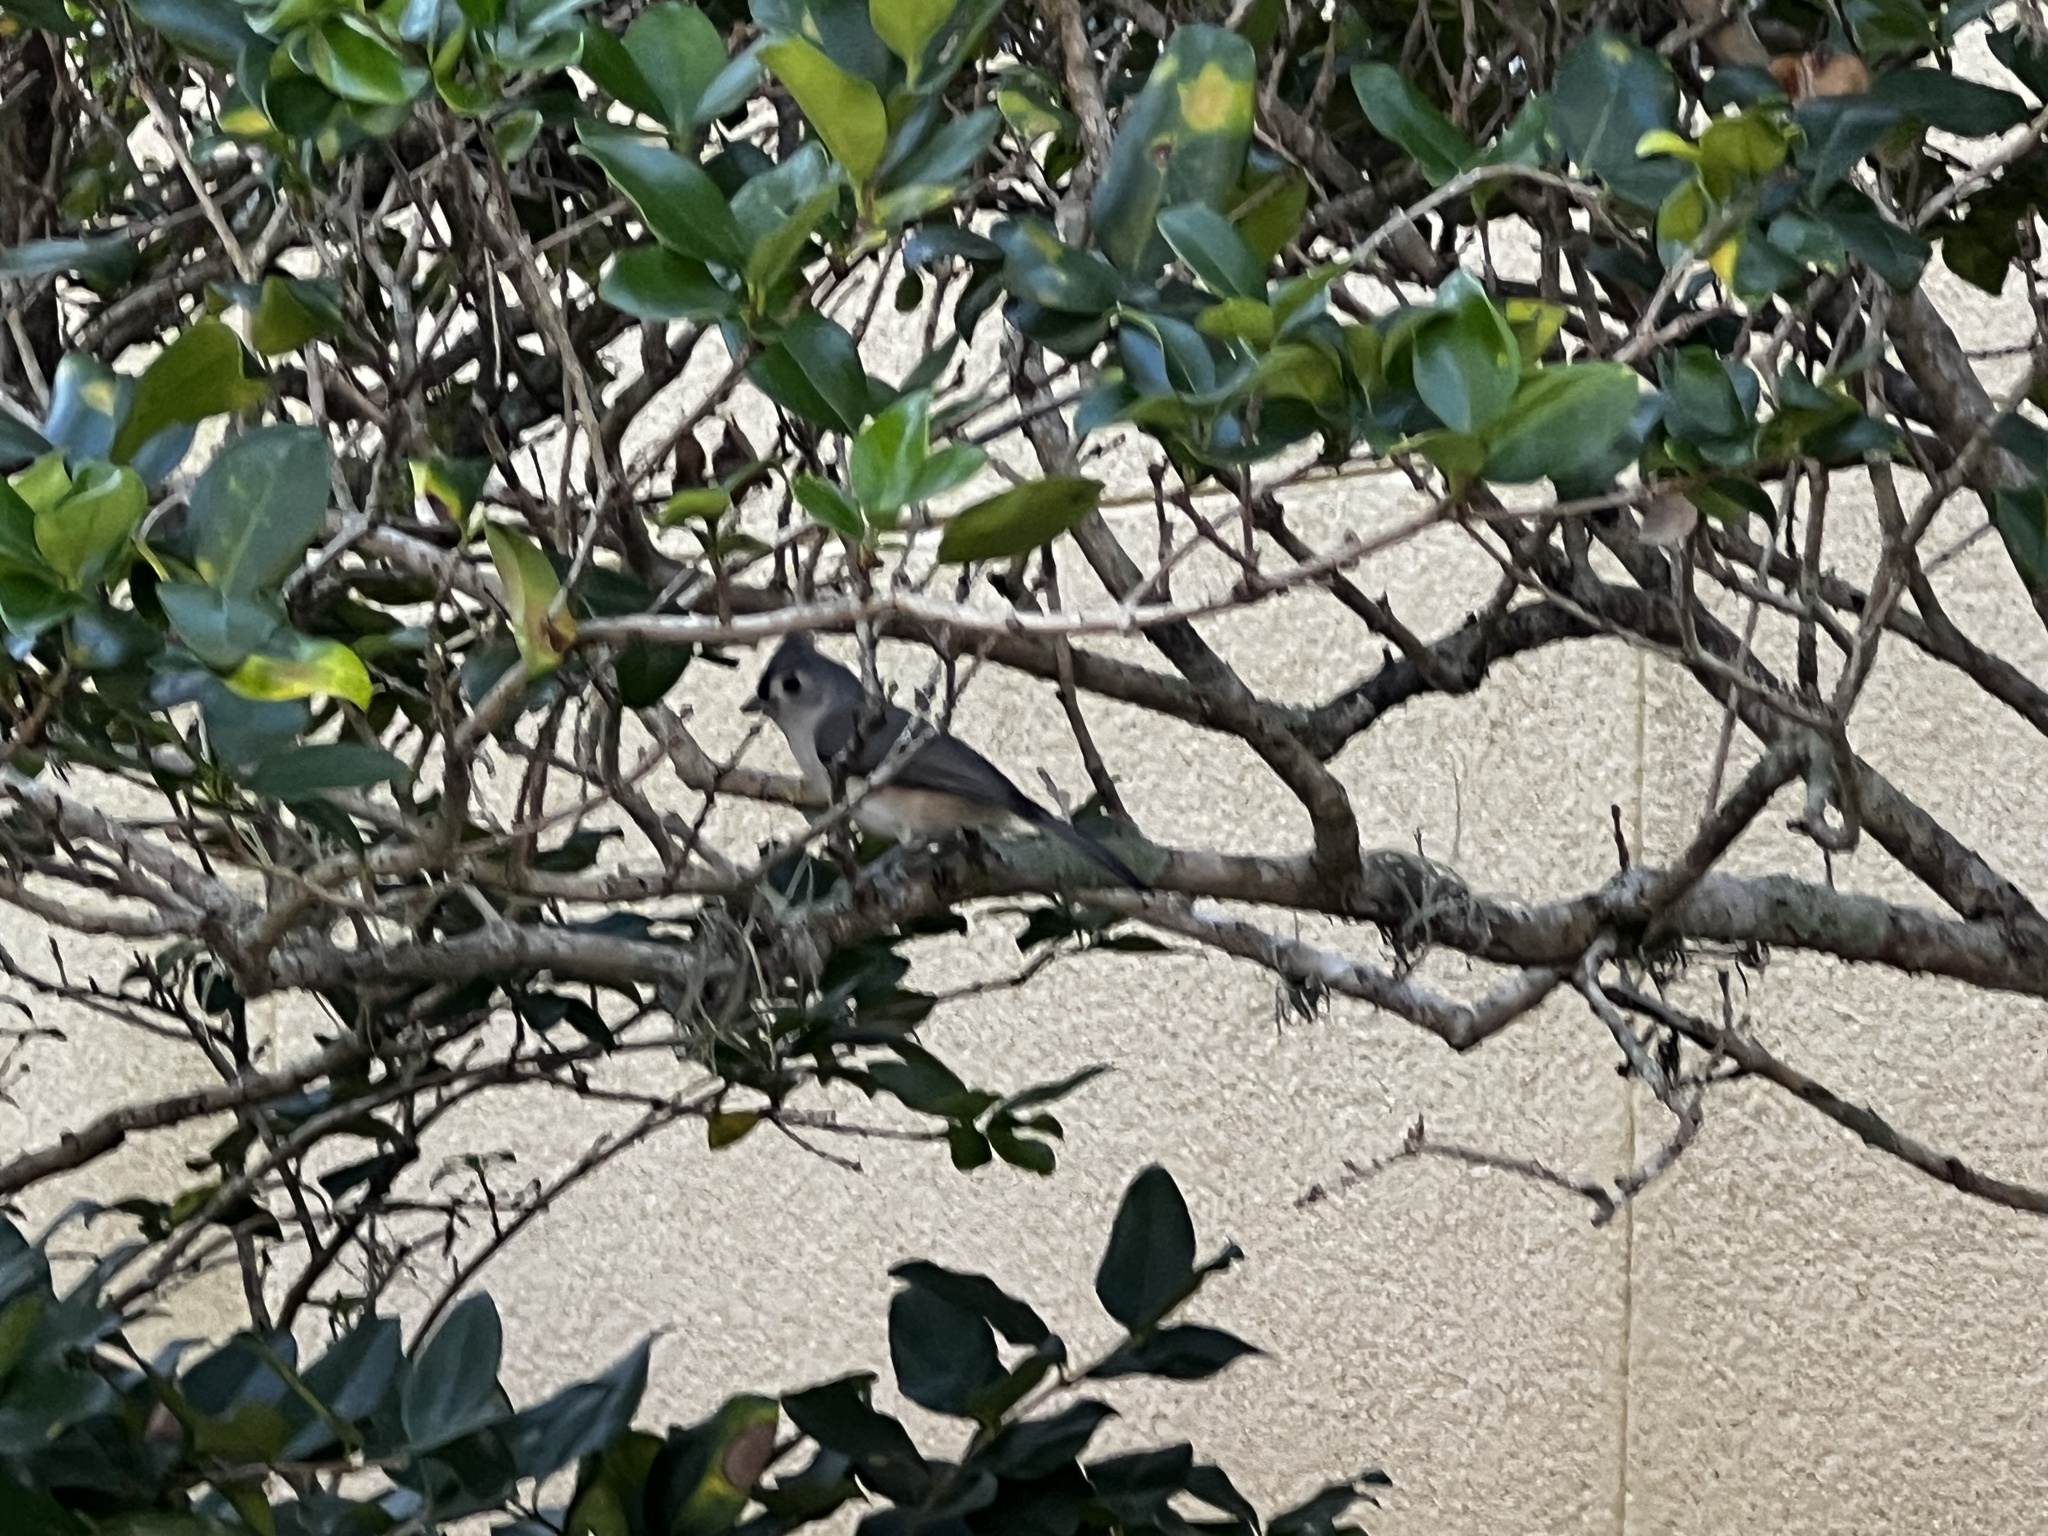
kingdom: Animalia
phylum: Chordata
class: Aves
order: Passeriformes
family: Paridae
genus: Baeolophus
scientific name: Baeolophus bicolor
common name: Tufted titmouse
